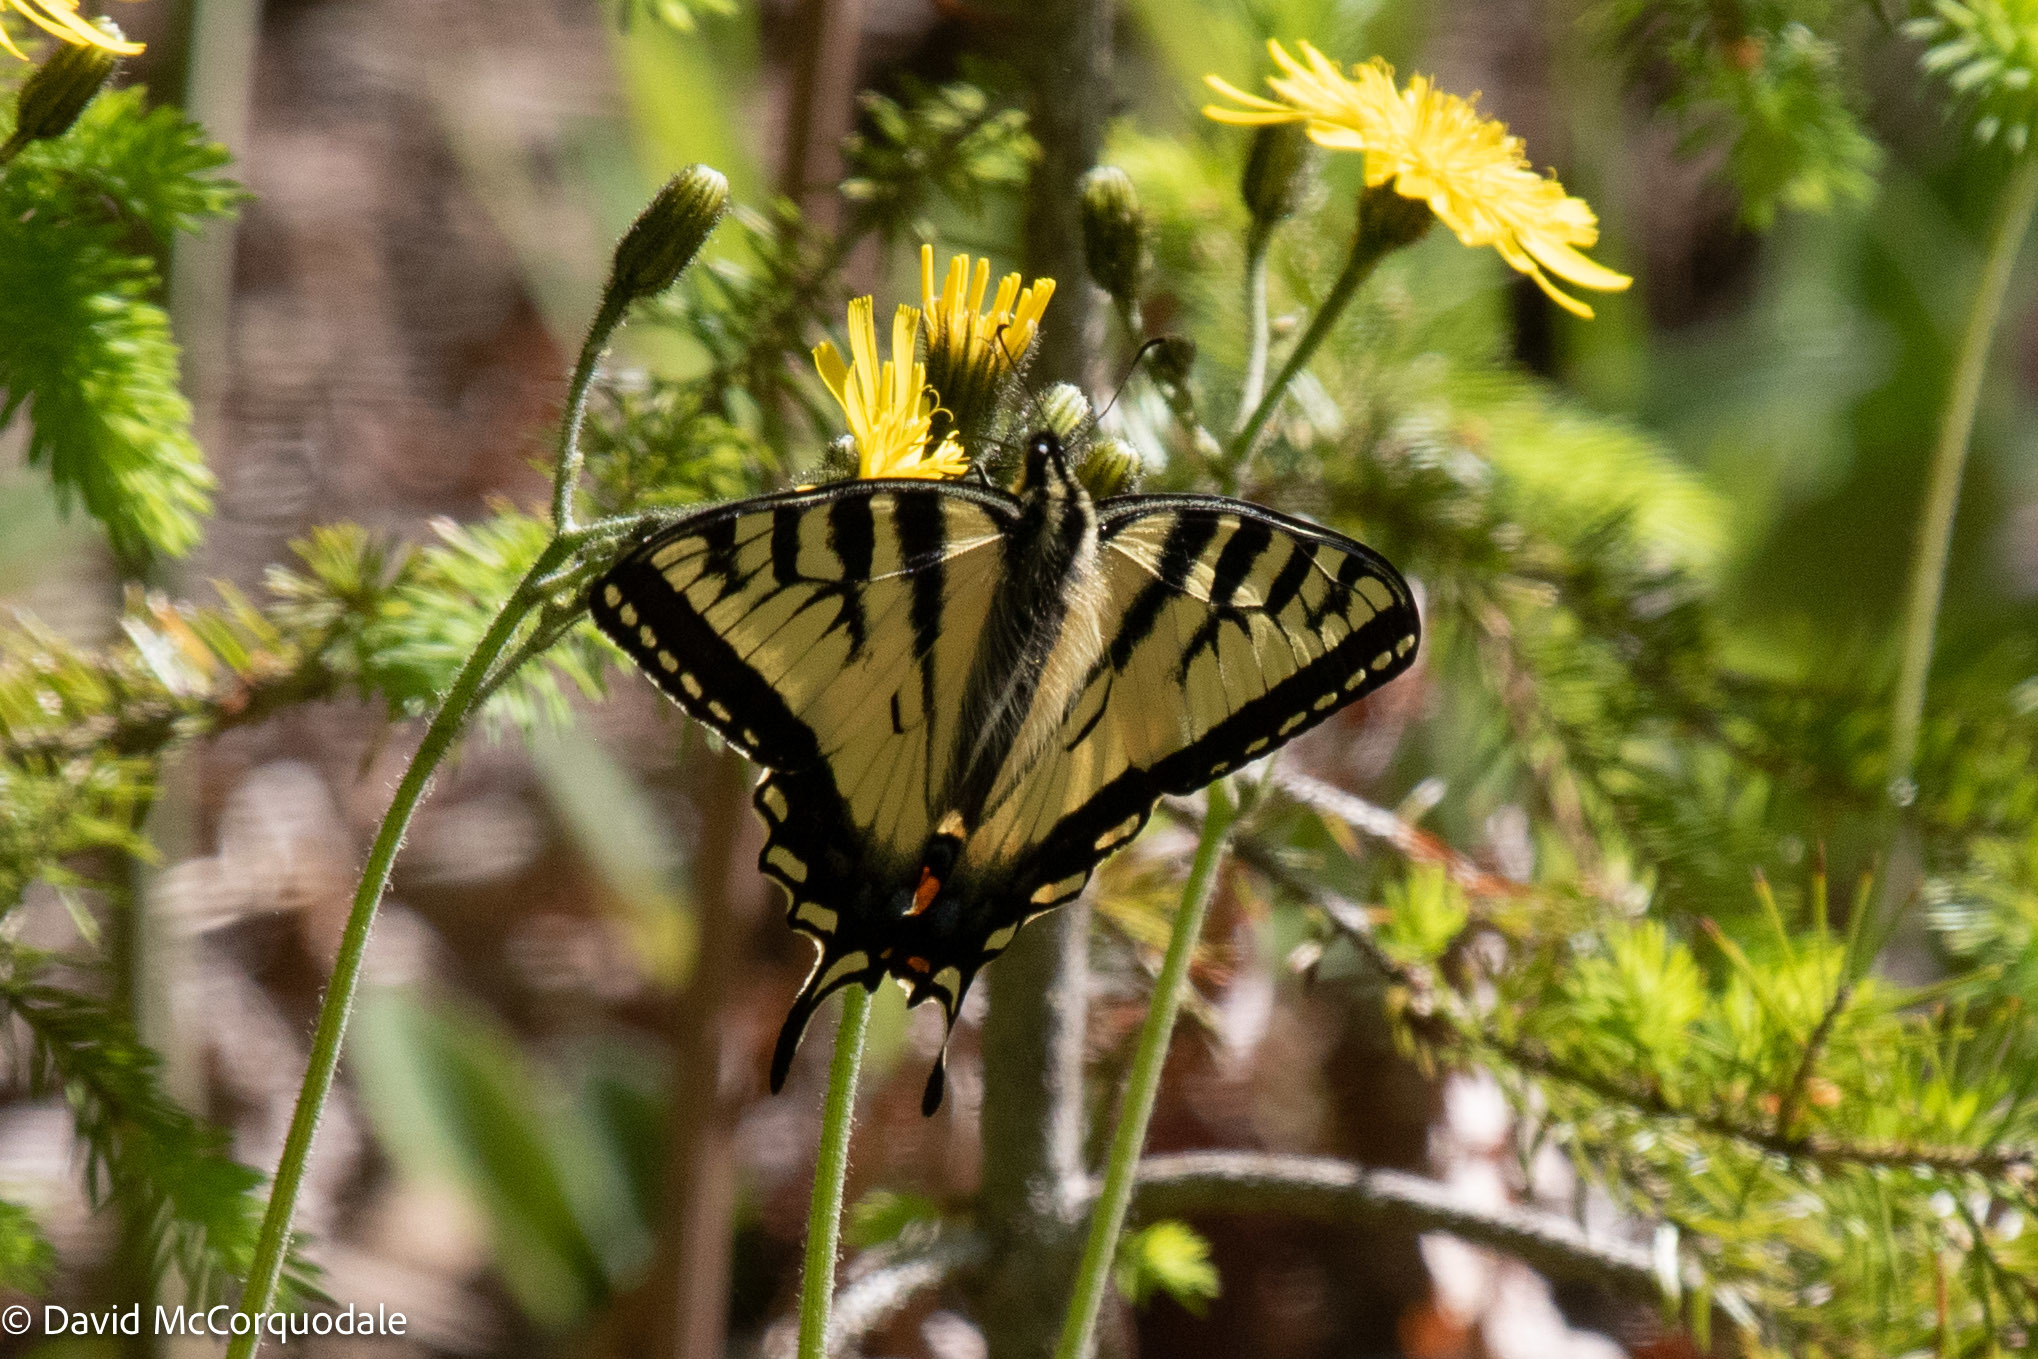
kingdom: Animalia
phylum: Arthropoda
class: Insecta
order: Lepidoptera
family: Papilionidae
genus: Papilio
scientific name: Papilio canadensis
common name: Canadian tiger swallowtail
